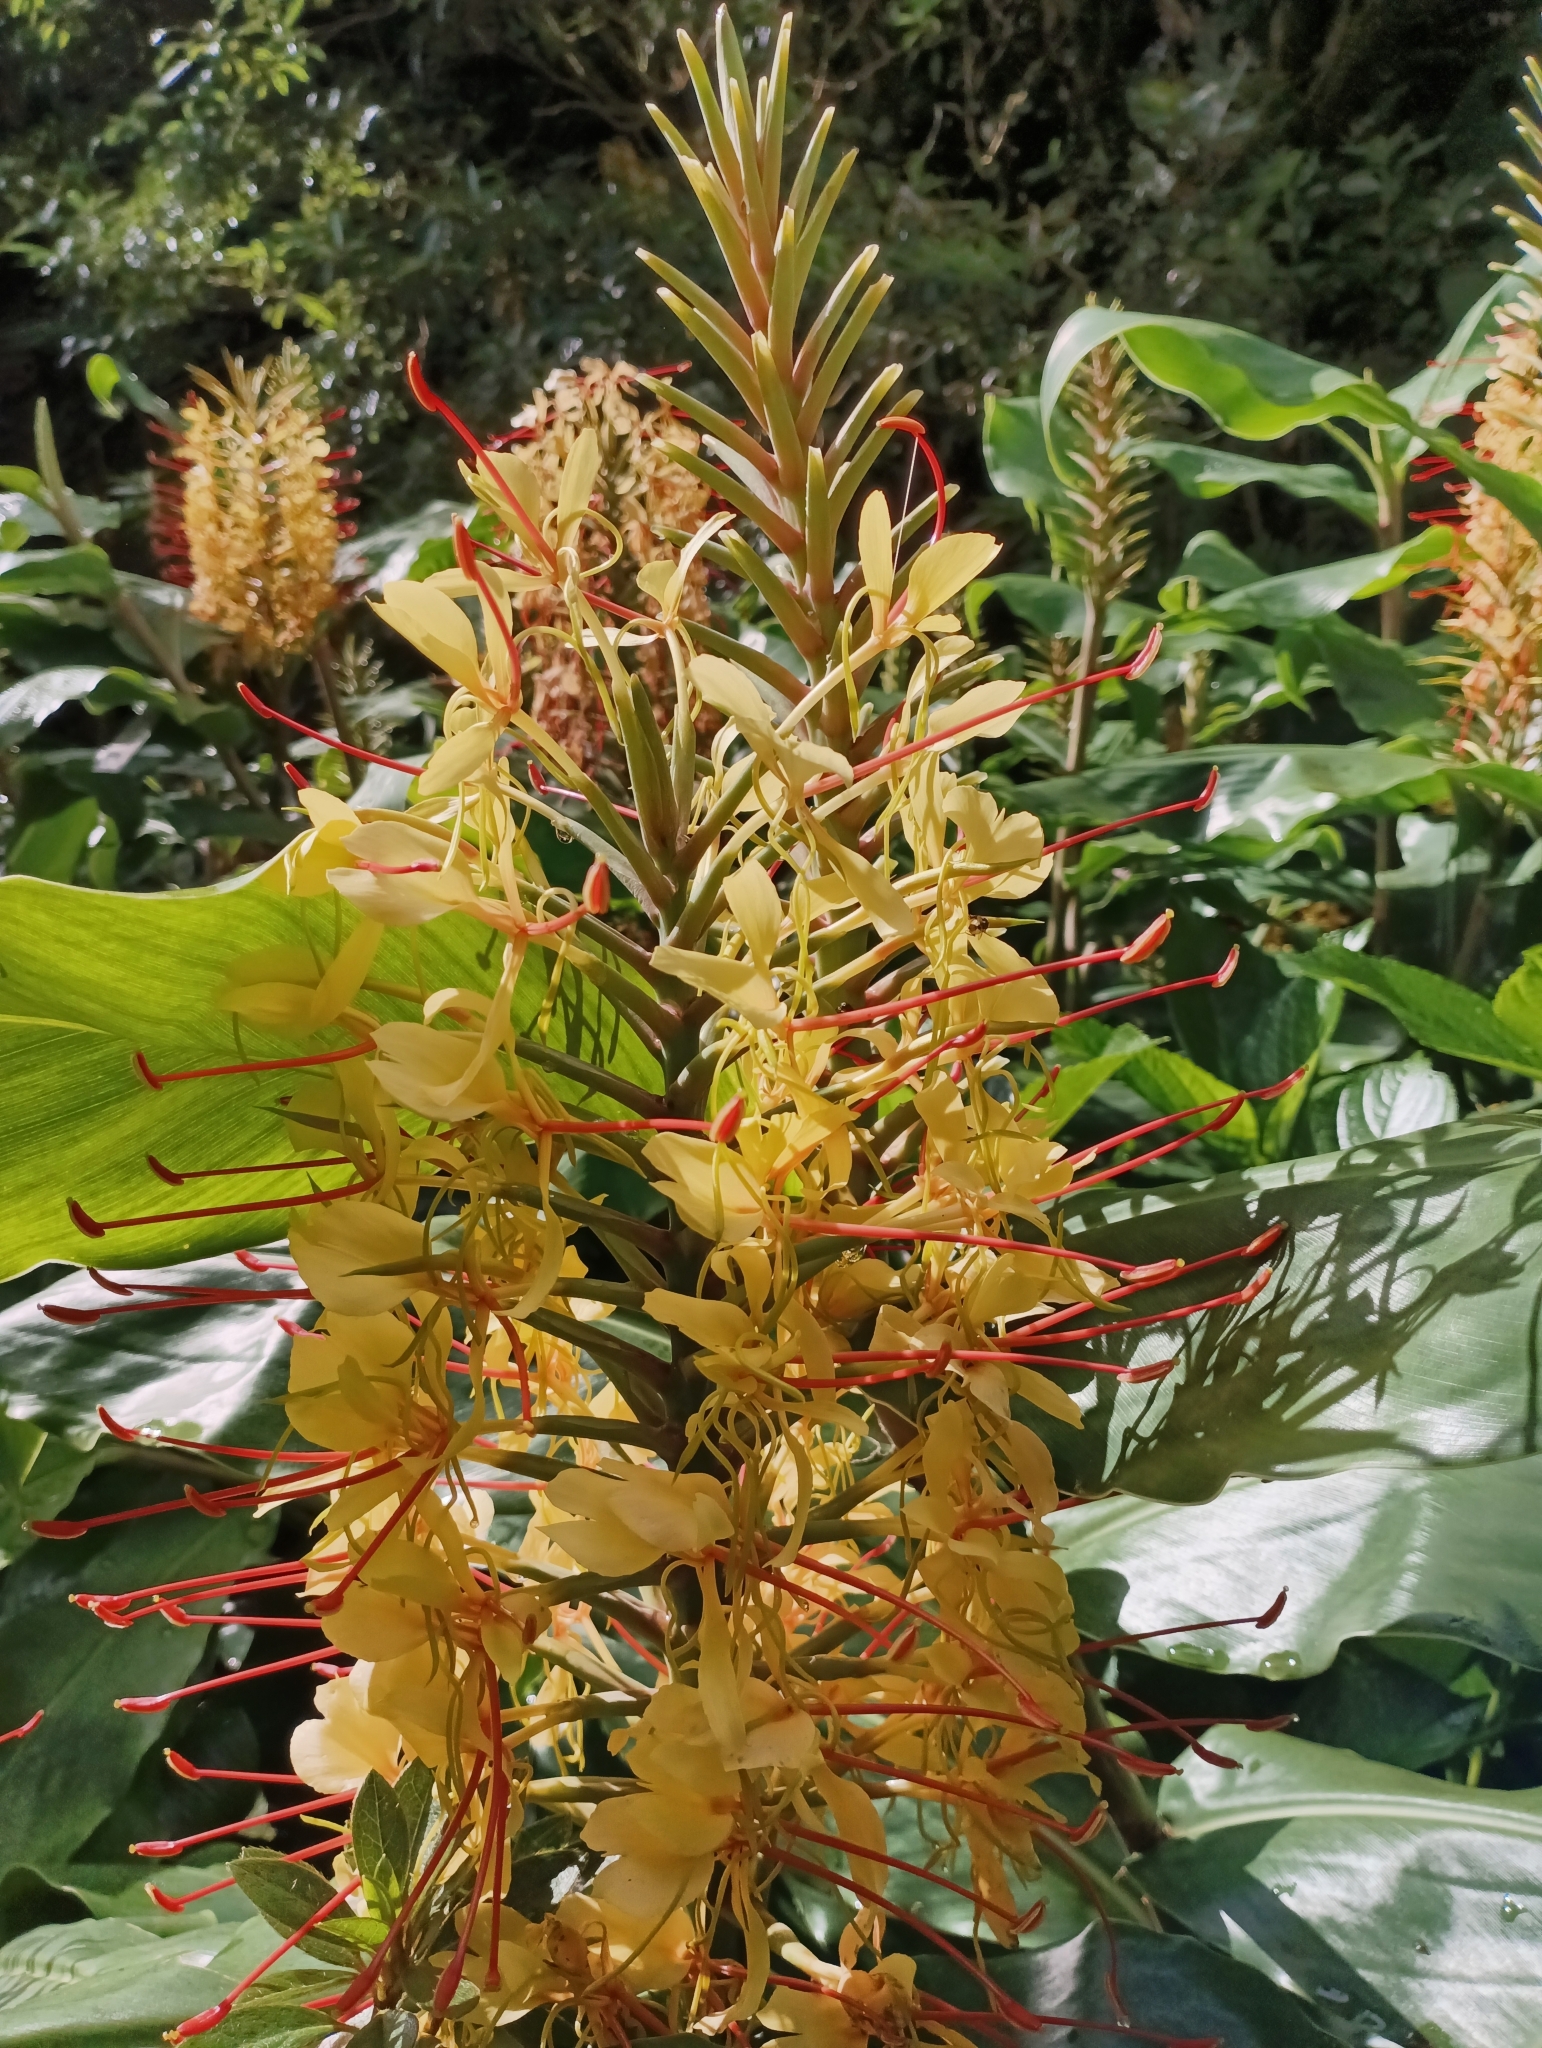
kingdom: Plantae
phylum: Tracheophyta
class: Liliopsida
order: Zingiberales
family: Zingiberaceae
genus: Hedychium
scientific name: Hedychium gardnerianum
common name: Himalayan ginger
